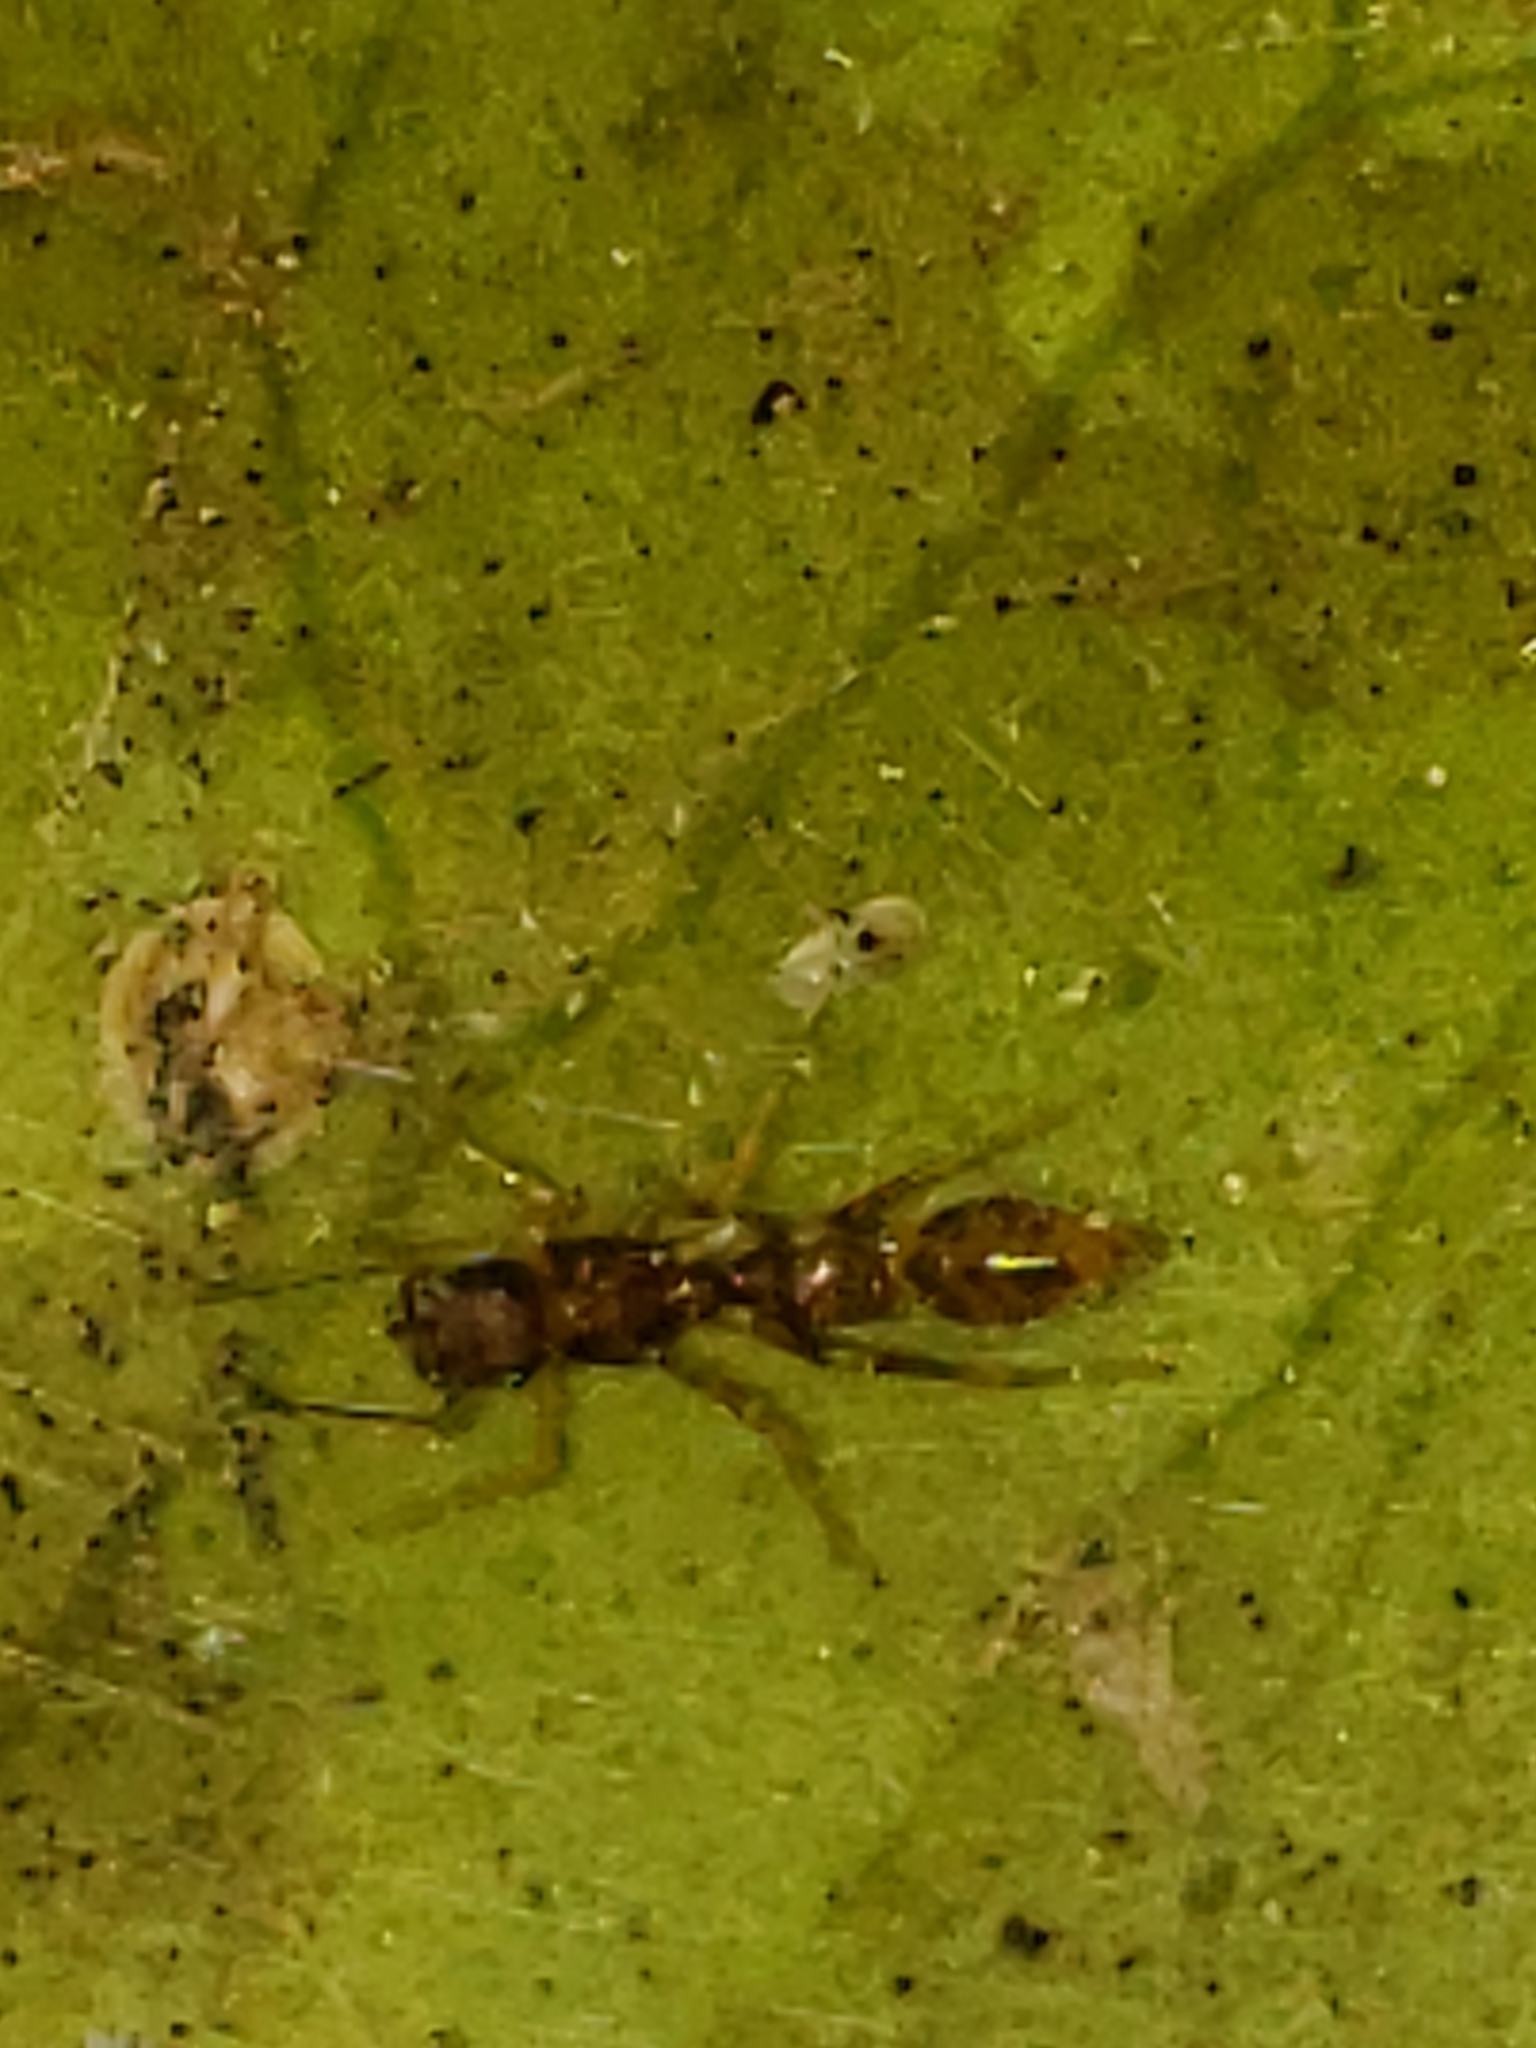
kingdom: Animalia
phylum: Arthropoda
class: Arachnida
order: Araneae
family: Salticidae
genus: Synemosyna
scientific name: Synemosyna formica
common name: Slender ant-mimic jumping spider
